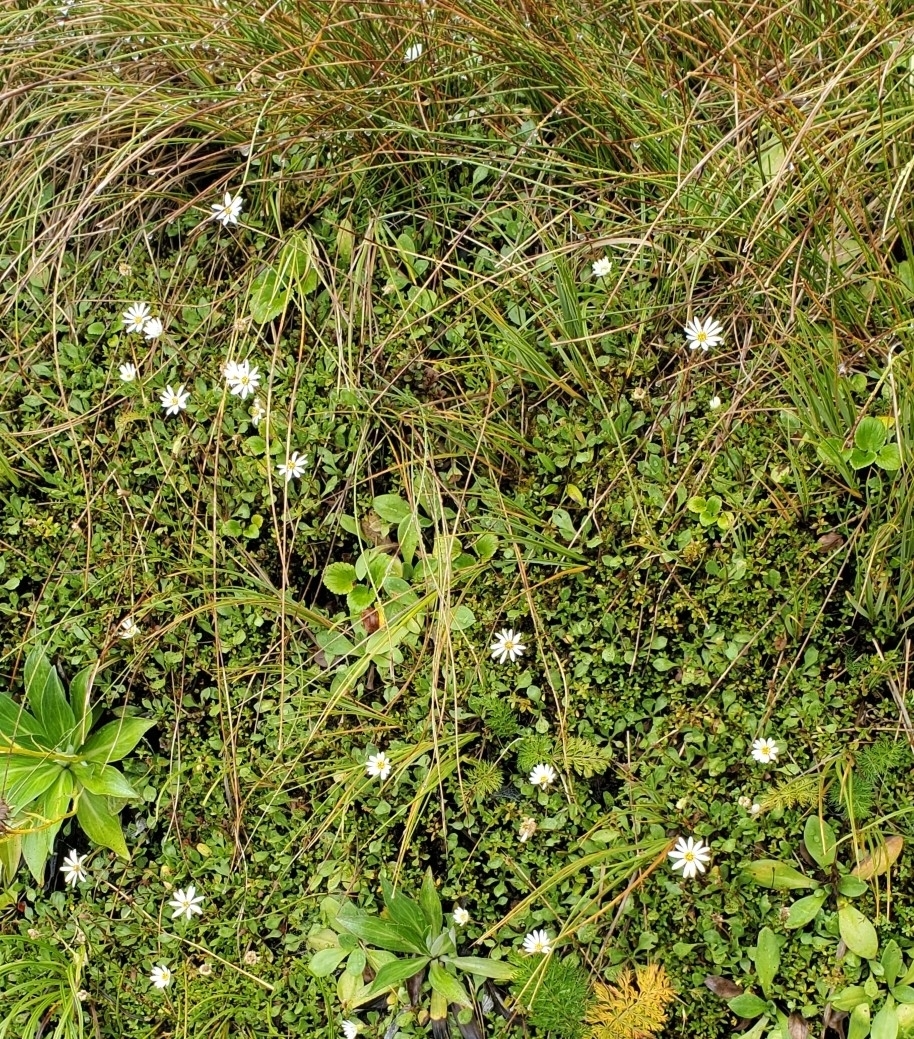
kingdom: Plantae
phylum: Tracheophyta
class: Magnoliopsida
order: Asterales
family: Asteraceae
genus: Celmisia
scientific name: Celmisia glandulosa
